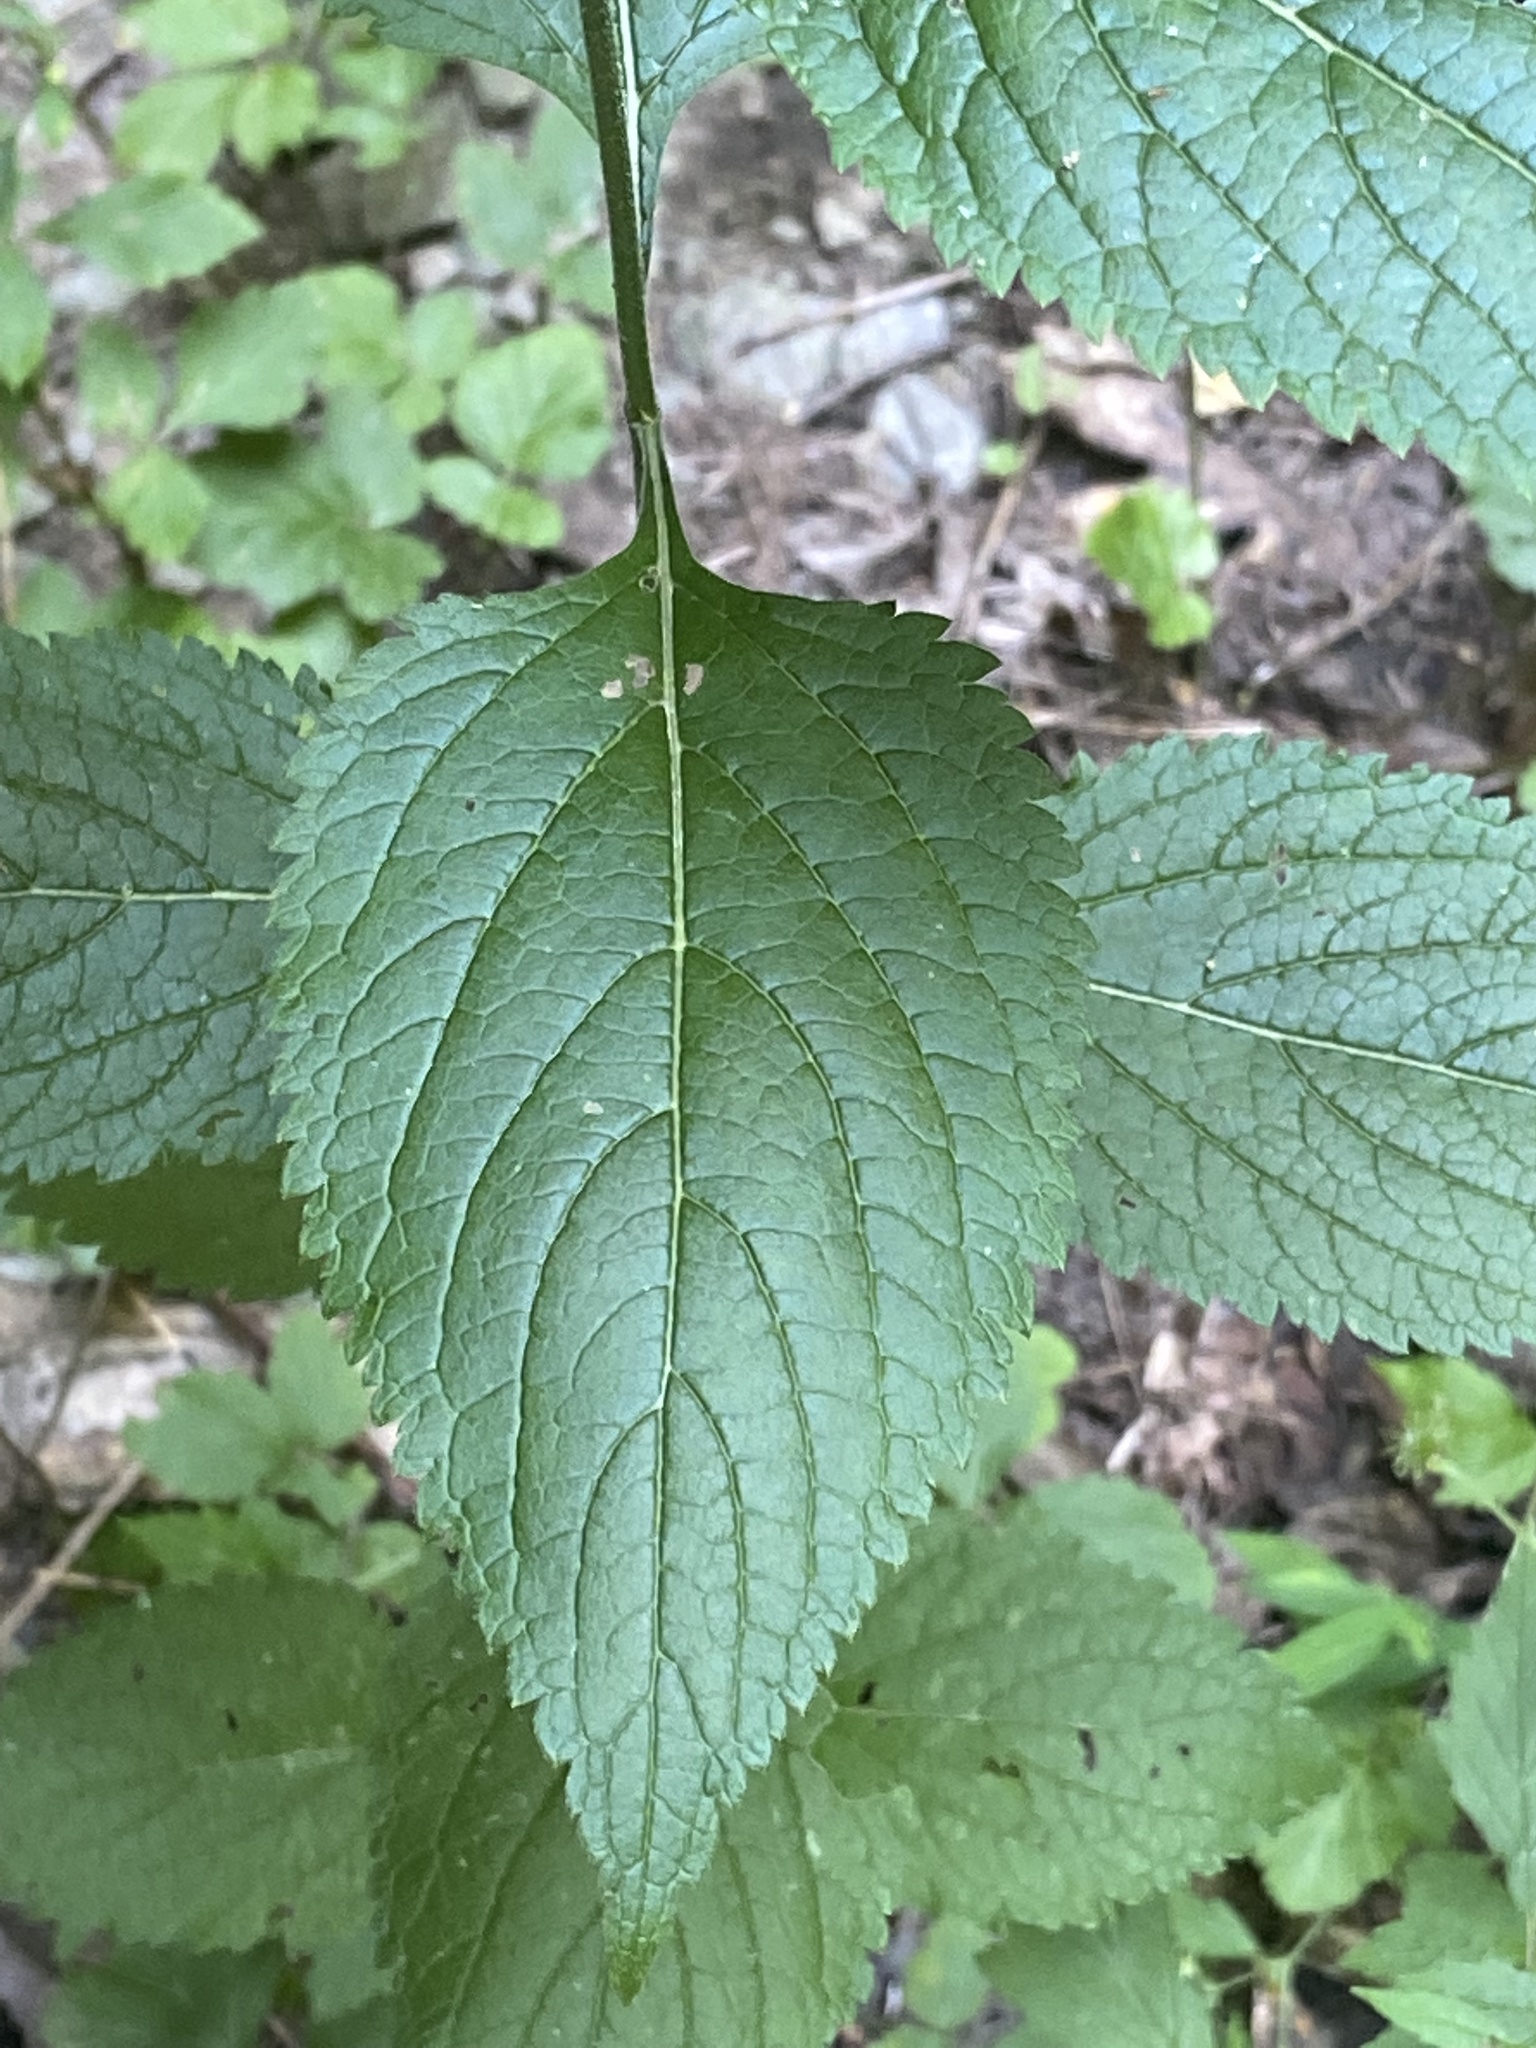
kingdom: Plantae
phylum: Tracheophyta
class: Magnoliopsida
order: Lamiales
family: Verbenaceae
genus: Verbena
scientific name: Verbena urticifolia
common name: Nettle-leaved vervain
